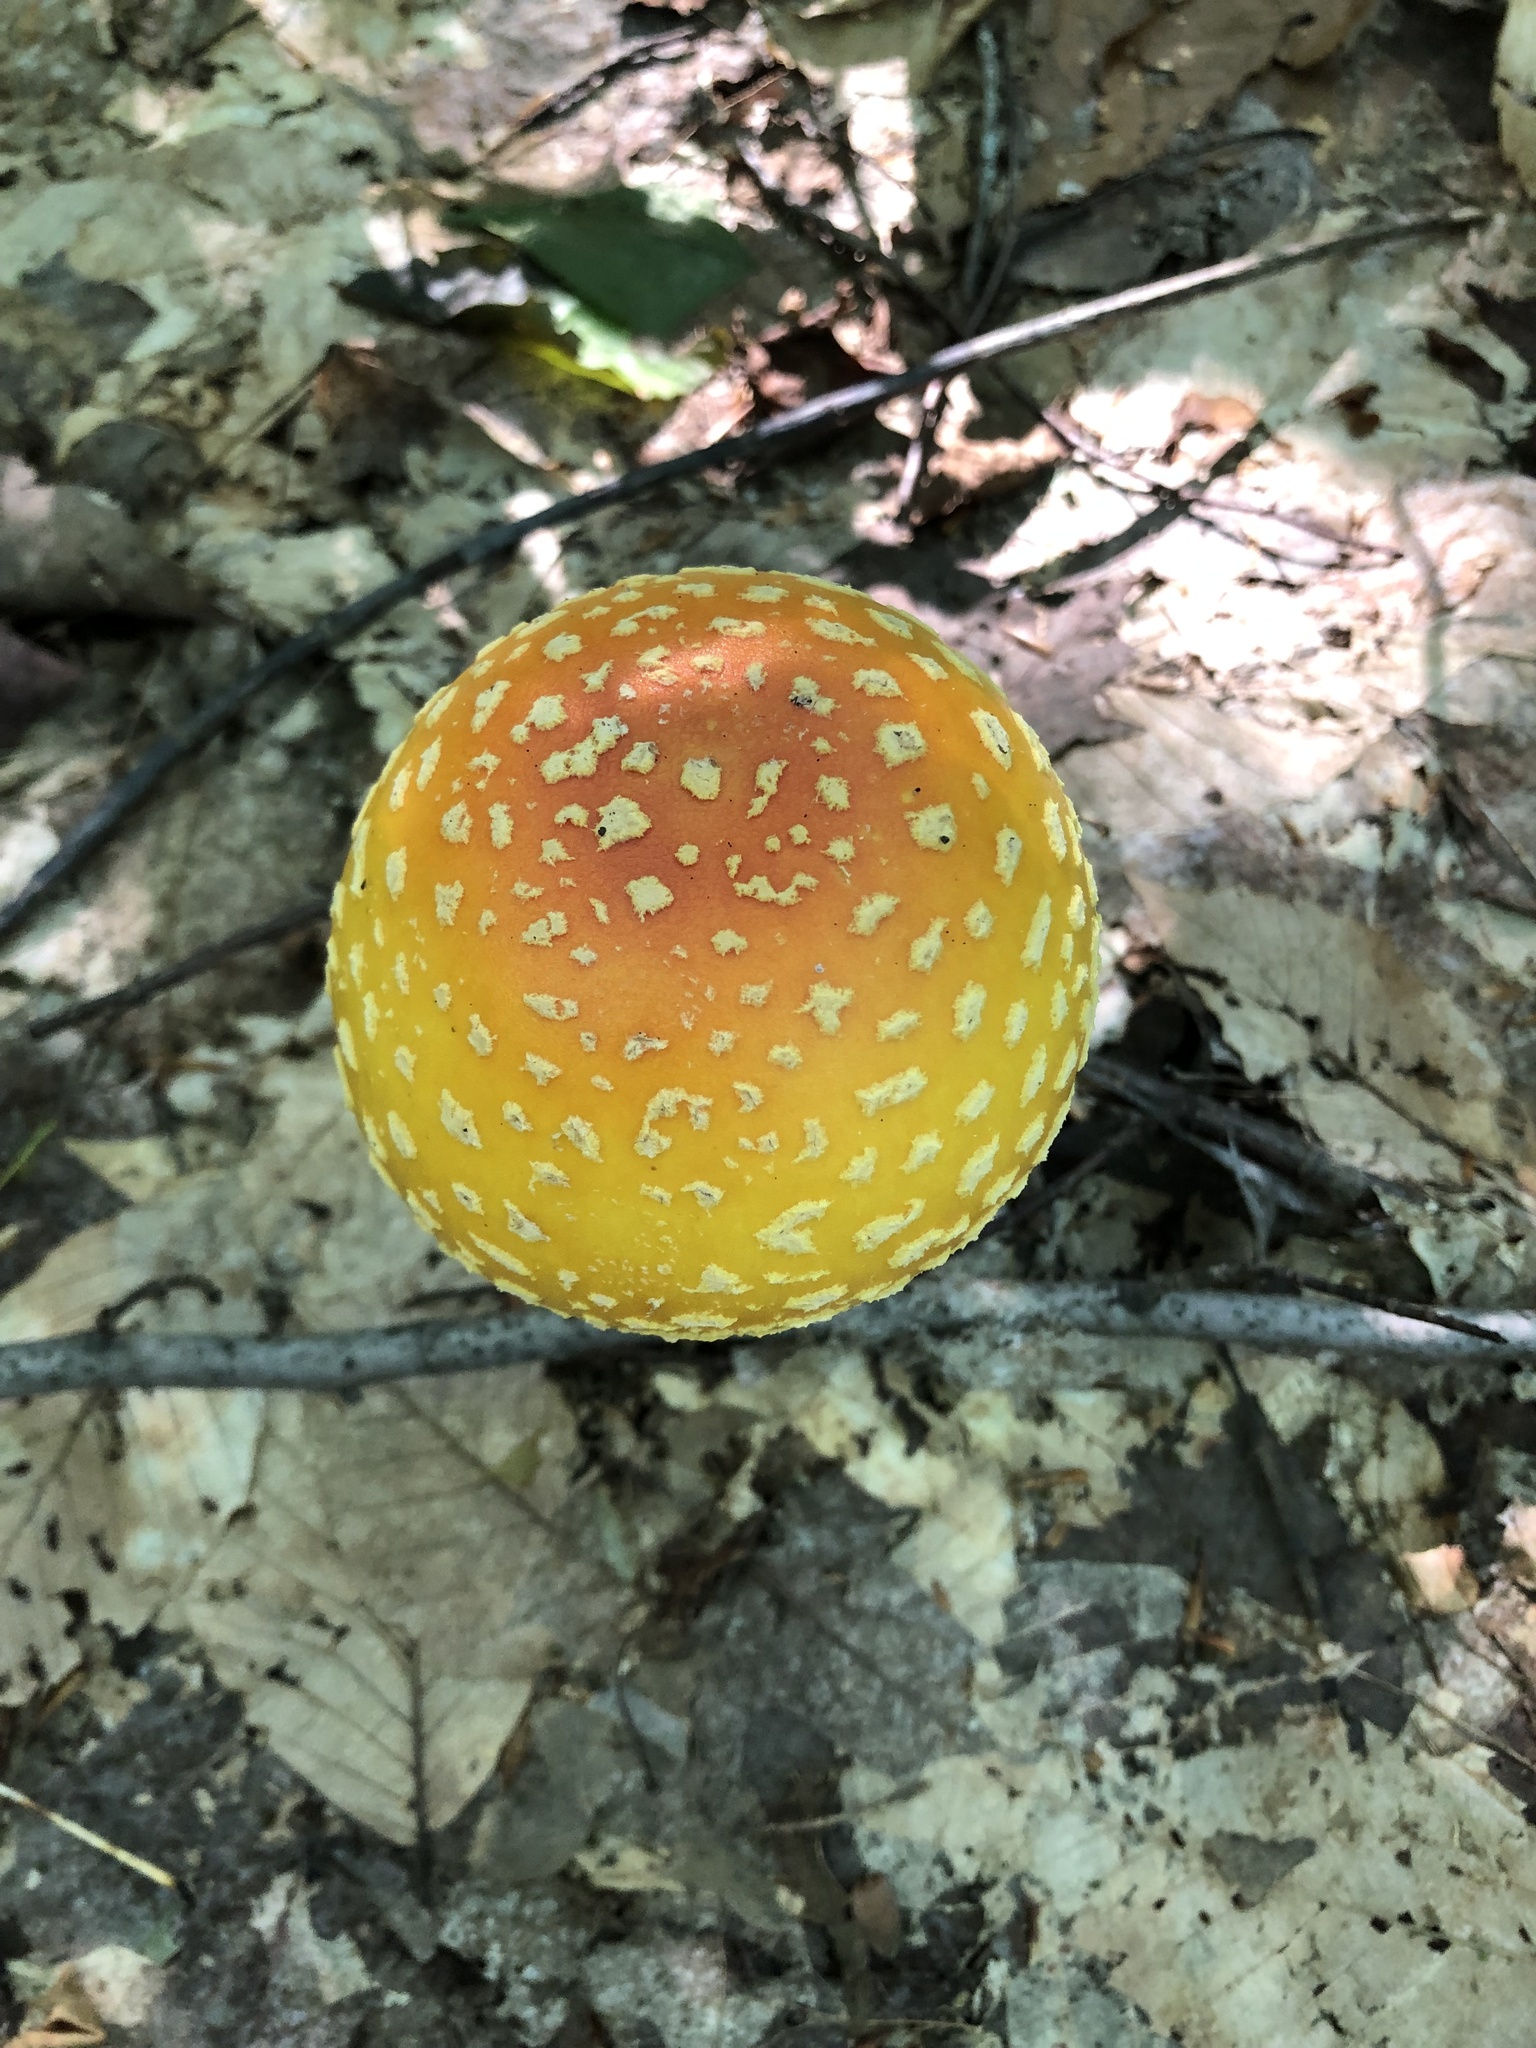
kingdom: Fungi
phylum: Basidiomycota
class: Agaricomycetes
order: Agaricales
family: Amanitaceae
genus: Amanita
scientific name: Amanita muscaria
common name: Fly agaric
